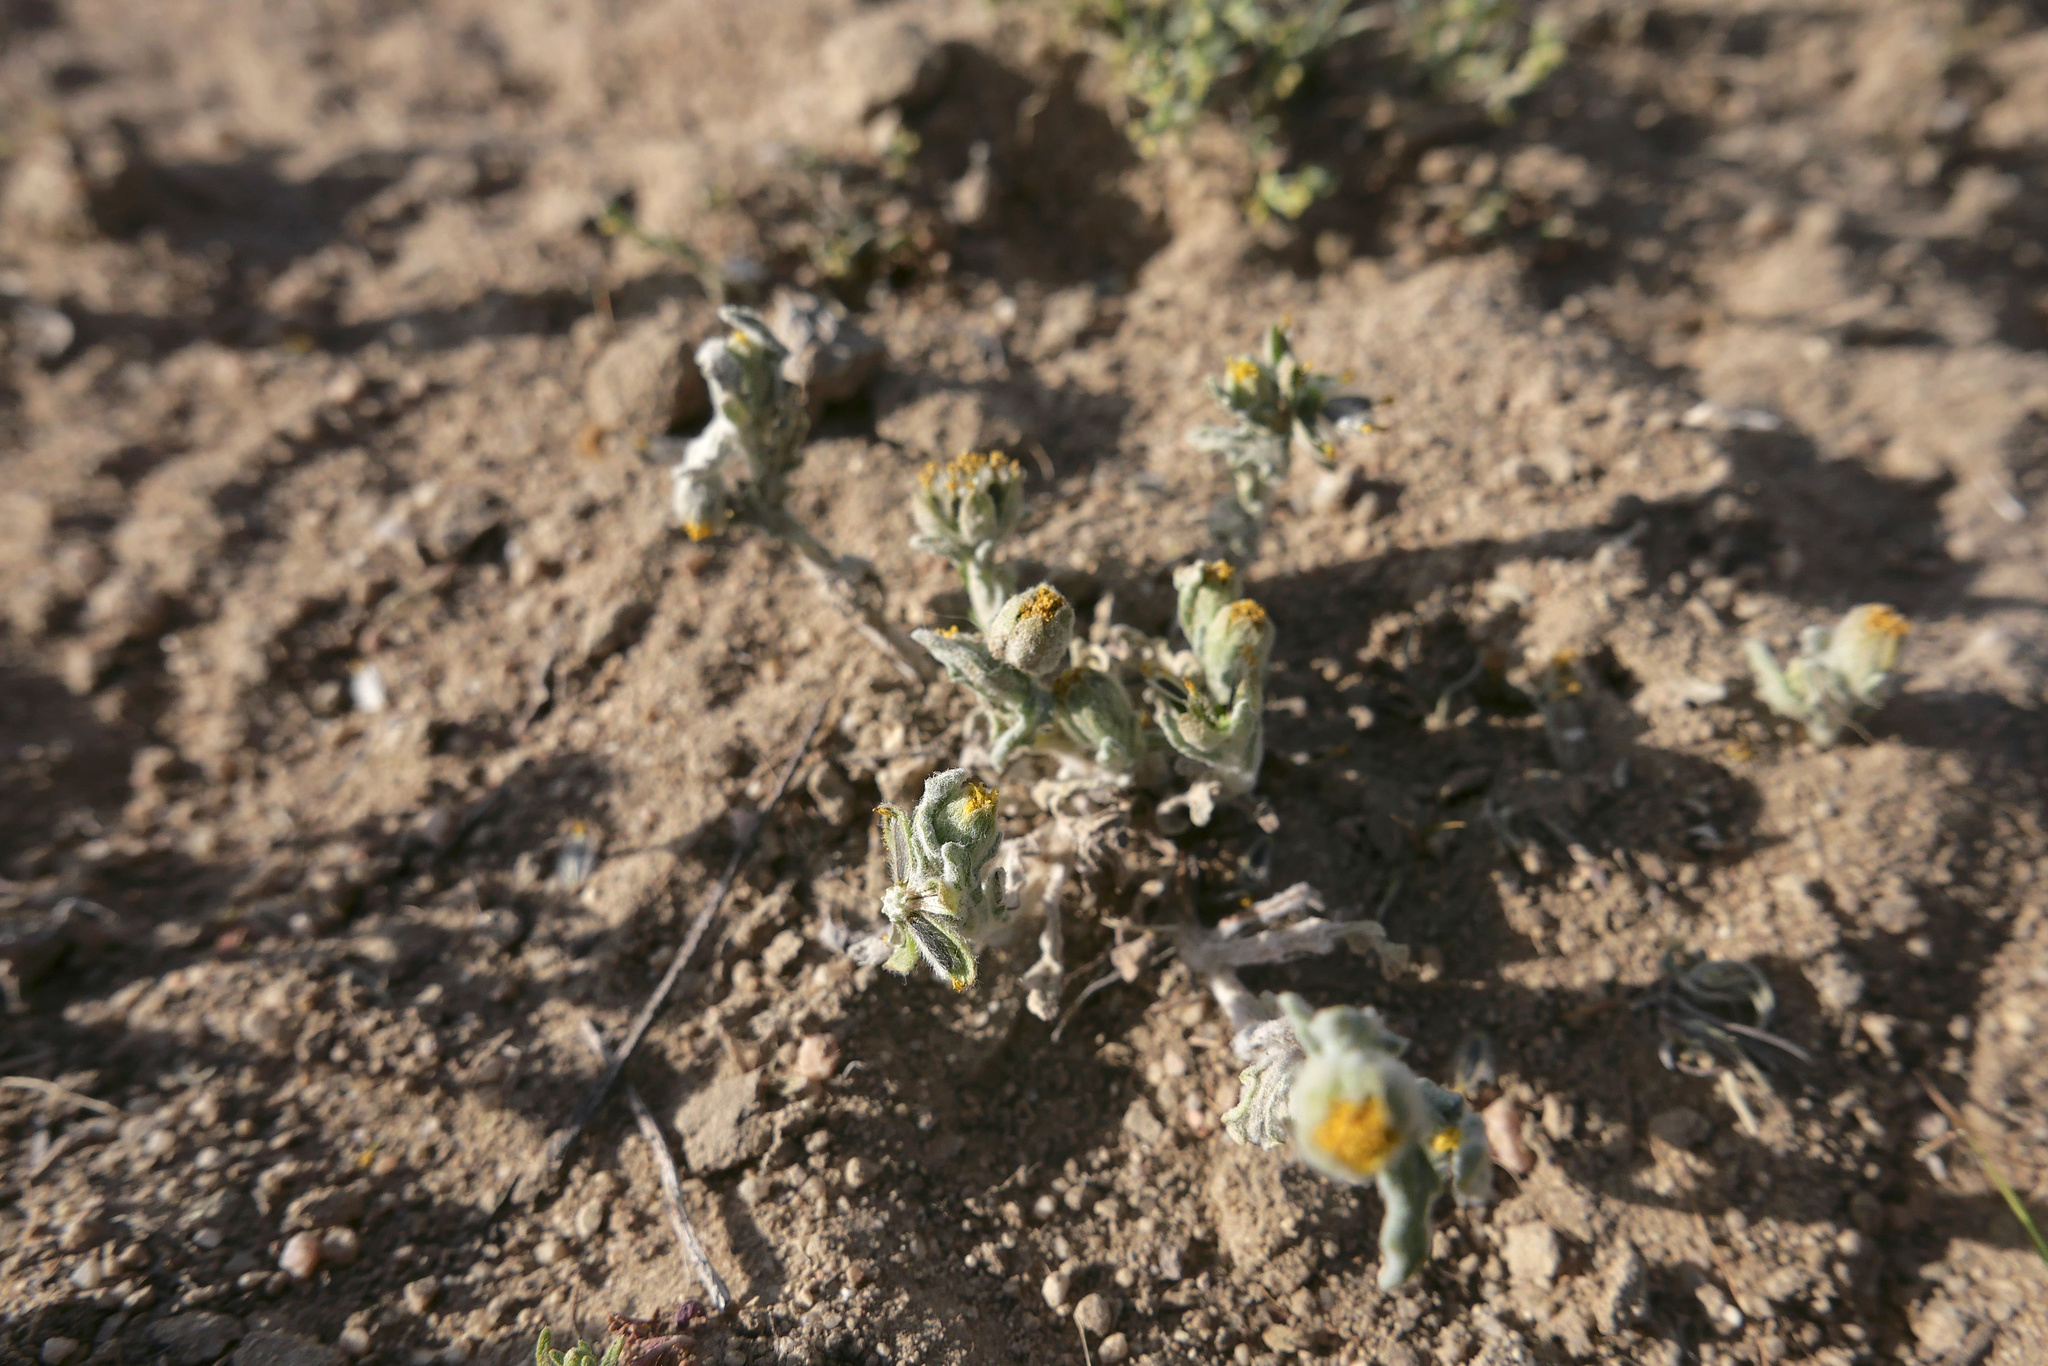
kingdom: Plantae
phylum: Tracheophyta
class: Magnoliopsida
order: Asterales
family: Asteraceae
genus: Monolopia
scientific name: Monolopia congdonii
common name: San joaquin woolly-threads
